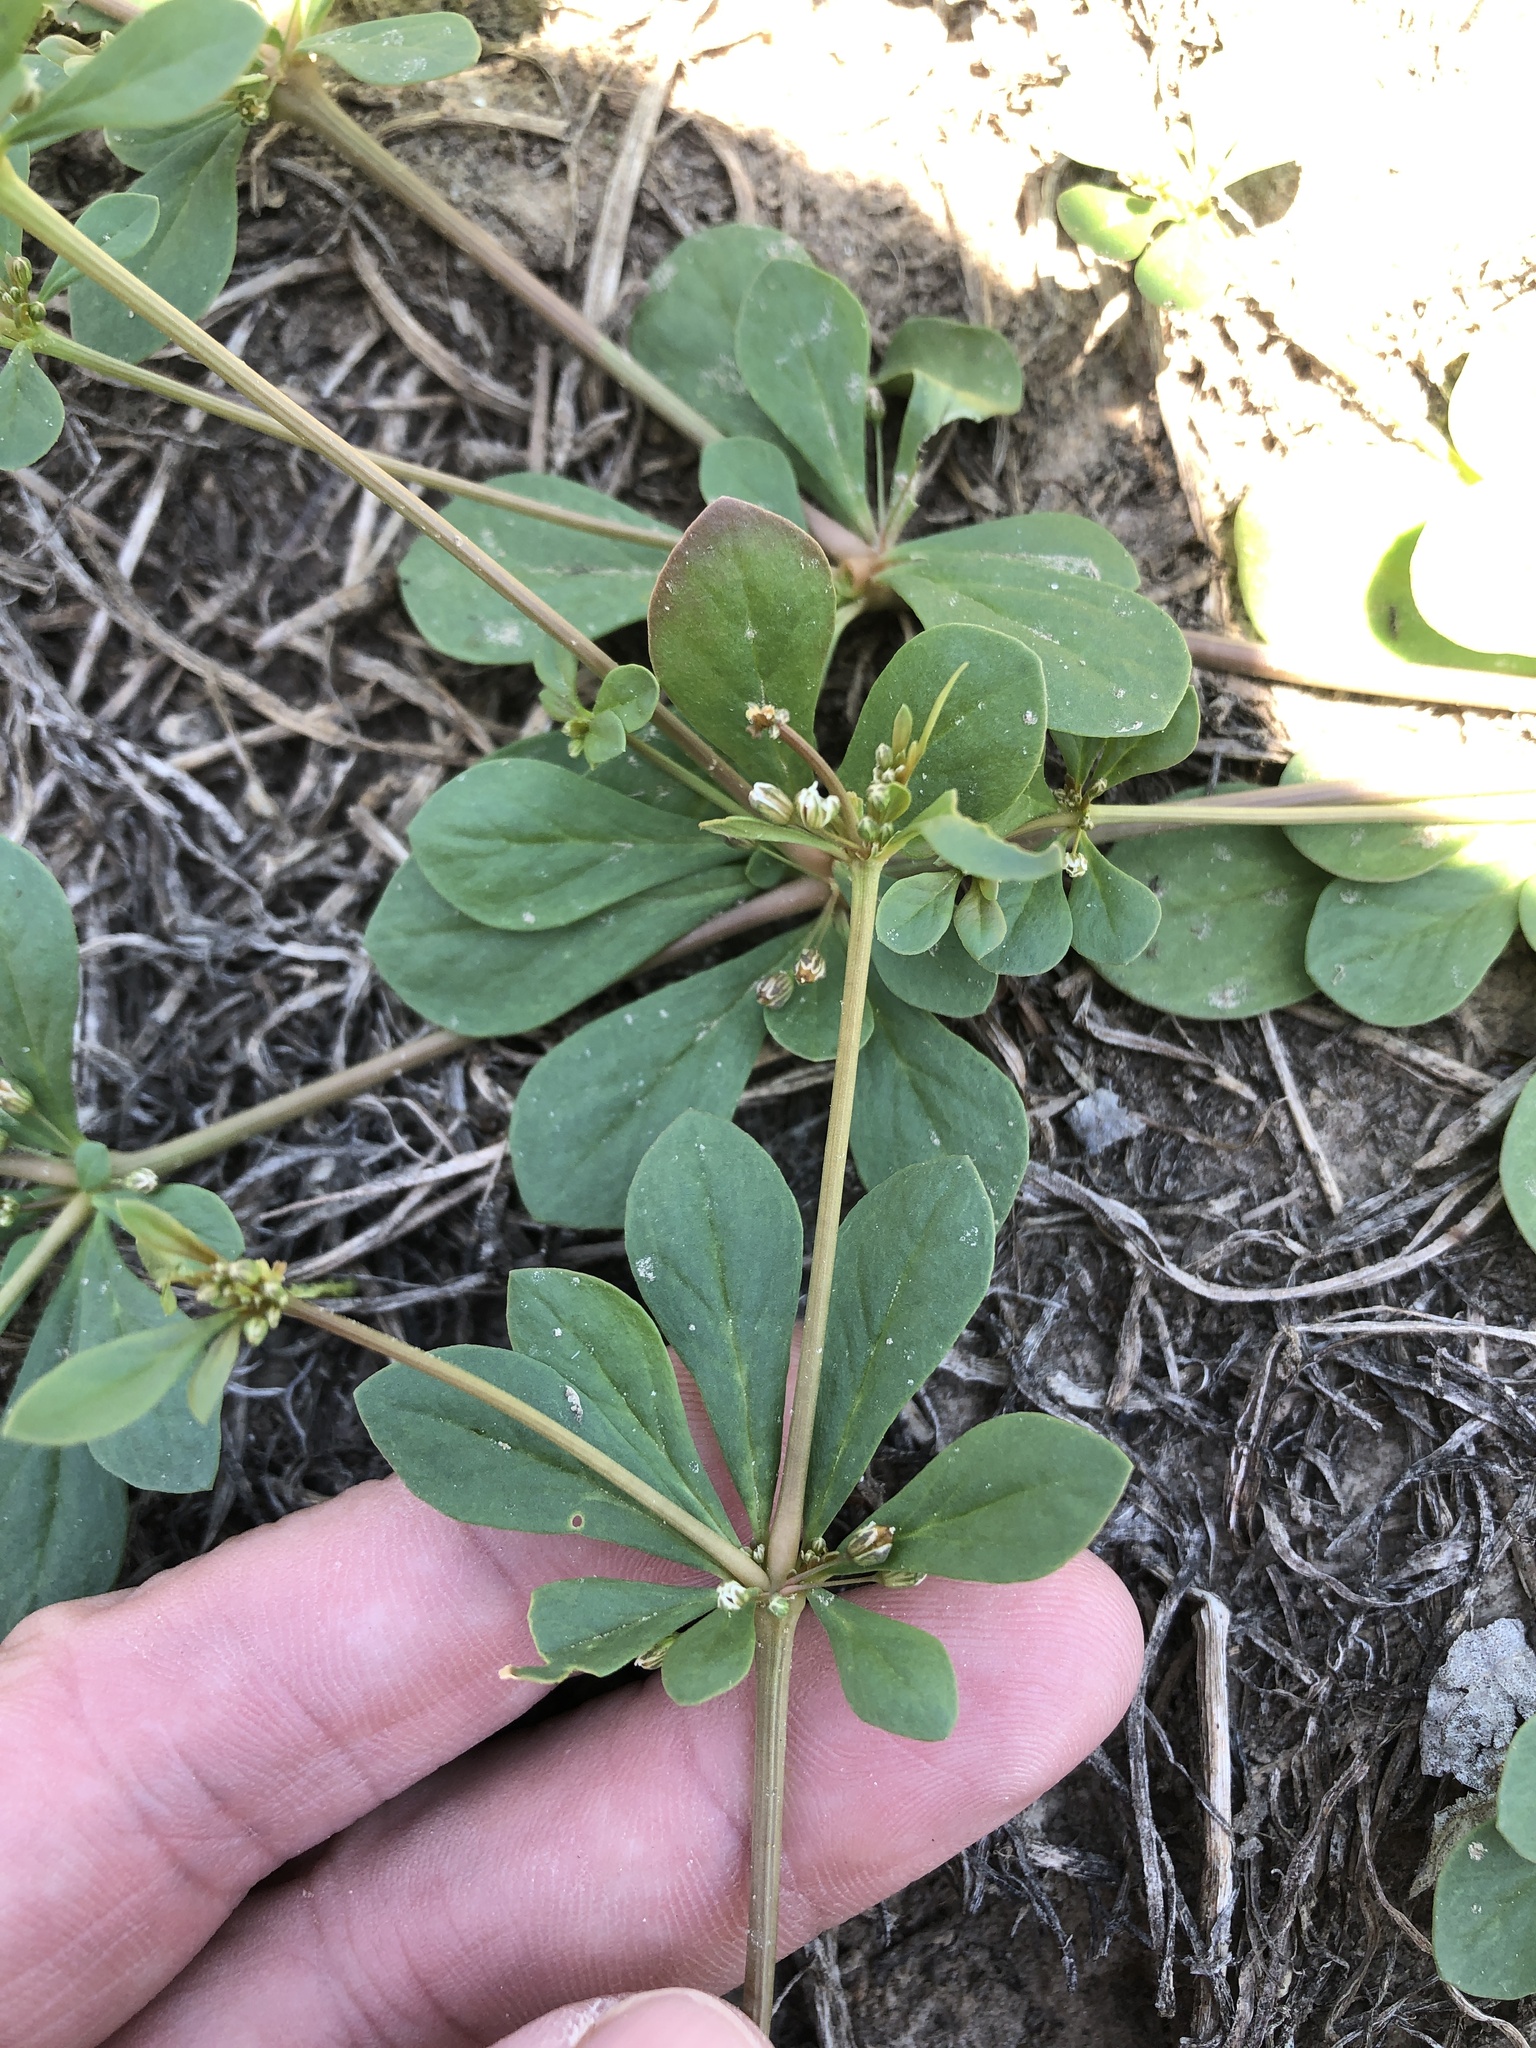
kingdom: Plantae
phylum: Tracheophyta
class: Magnoliopsida
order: Caryophyllales
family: Molluginaceae
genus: Mollugo
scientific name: Mollugo verticillata
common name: Green carpetweed
